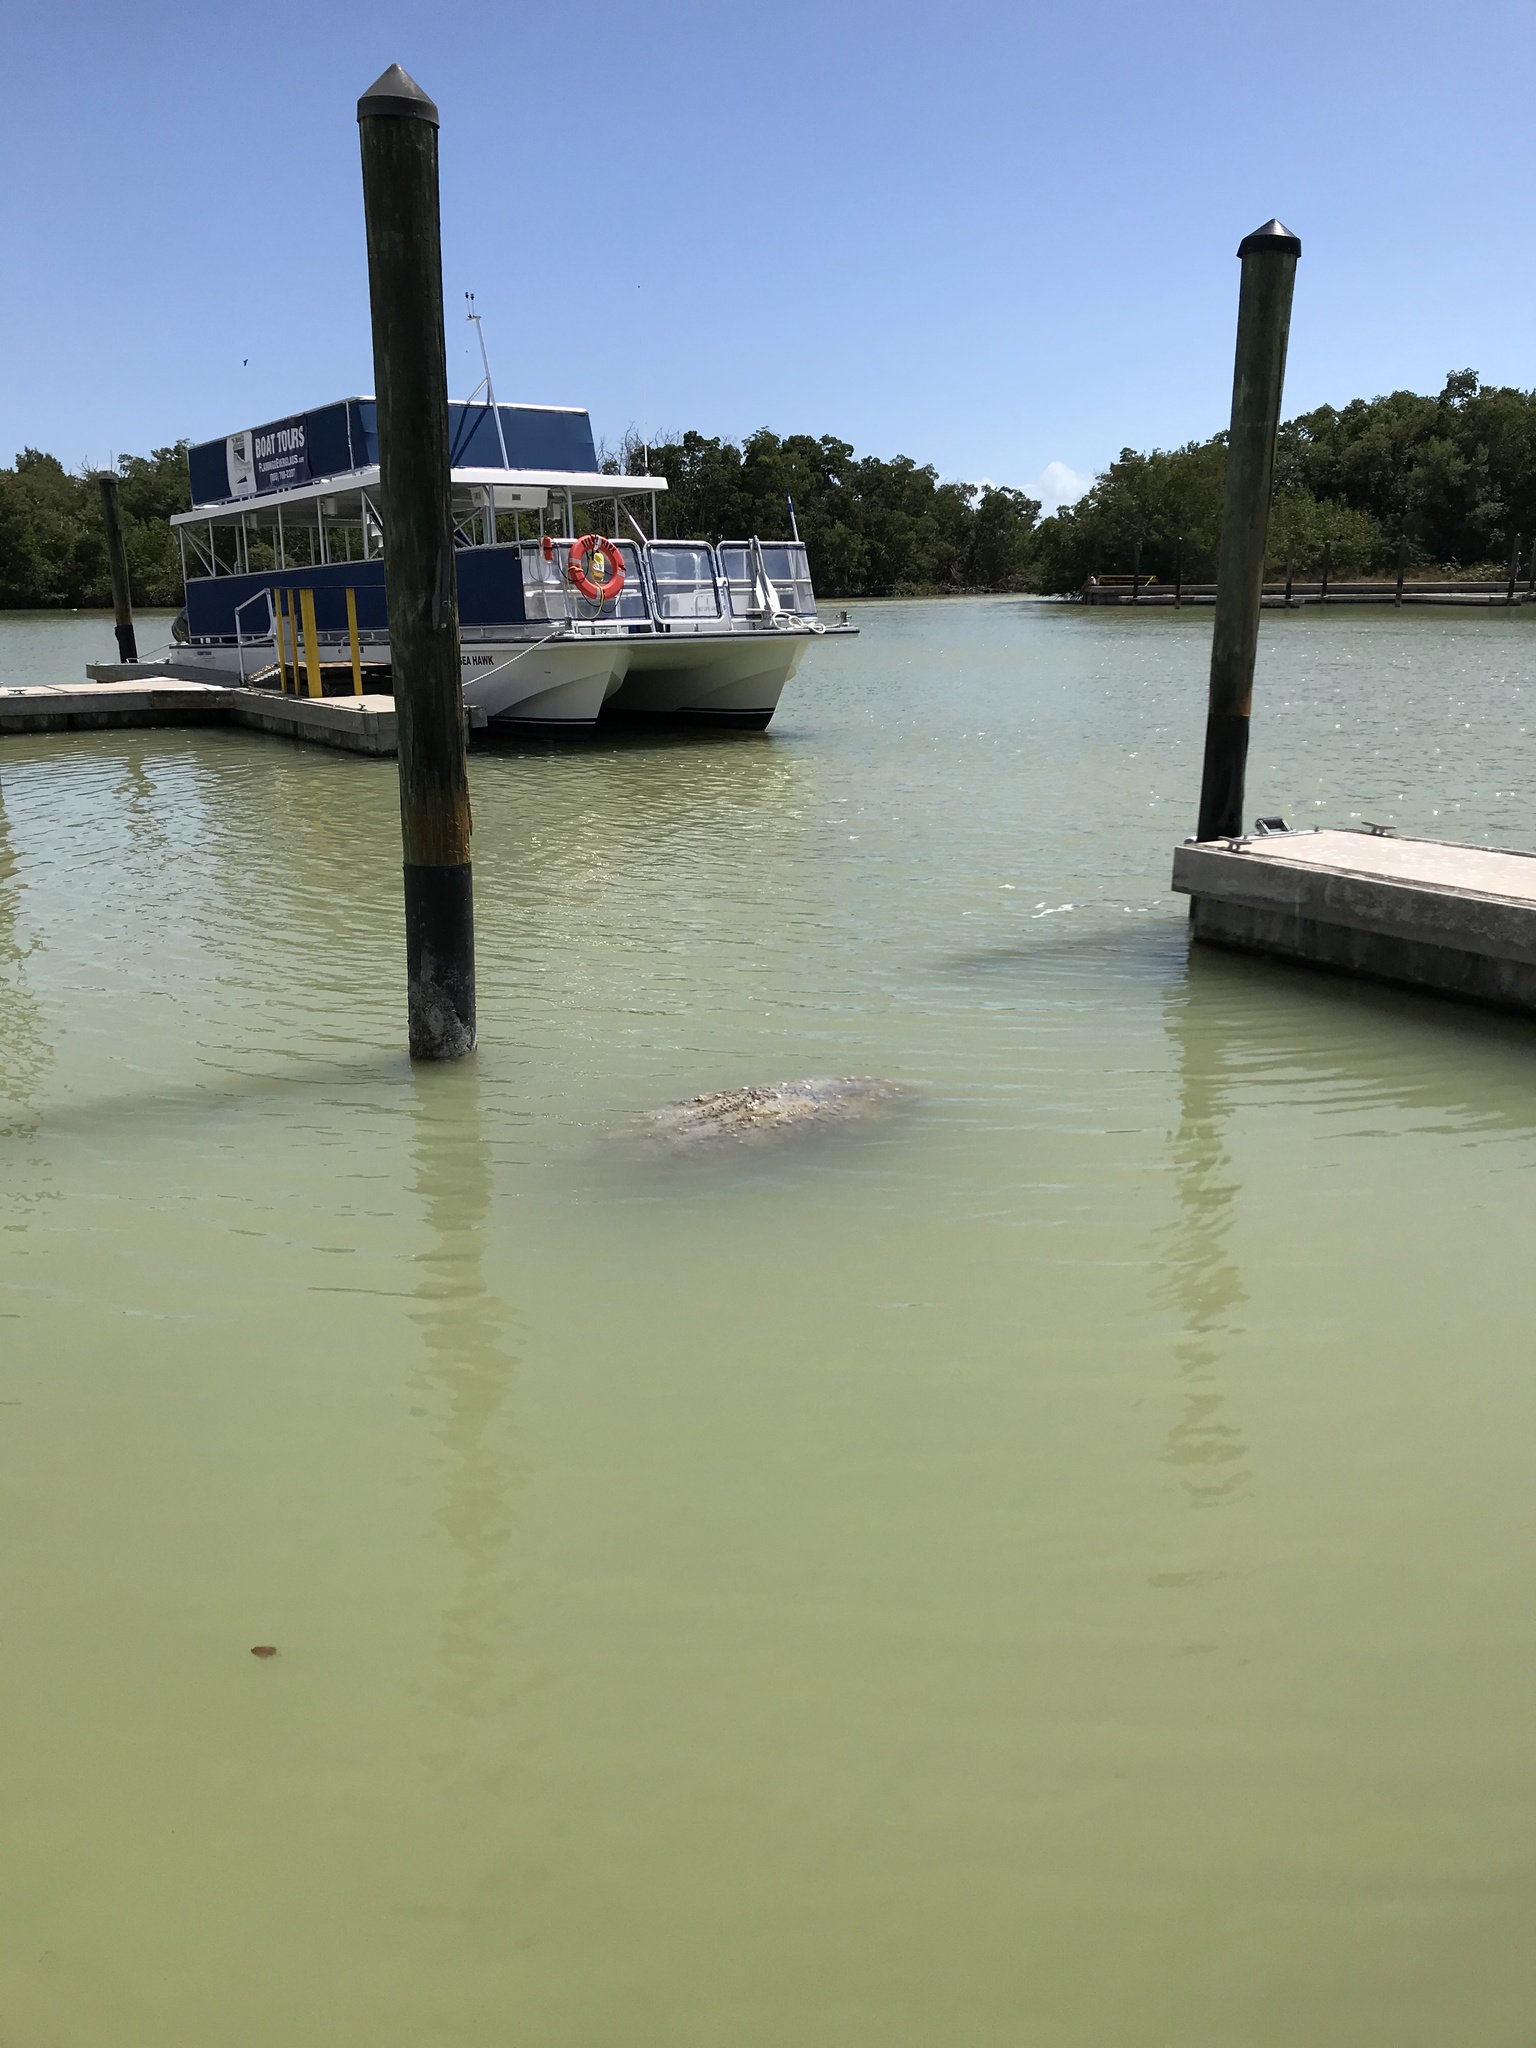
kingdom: Animalia
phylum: Chordata
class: Mammalia
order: Sirenia
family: Trichechidae
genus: Trichechus
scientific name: Trichechus manatus
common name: West indian manatee
